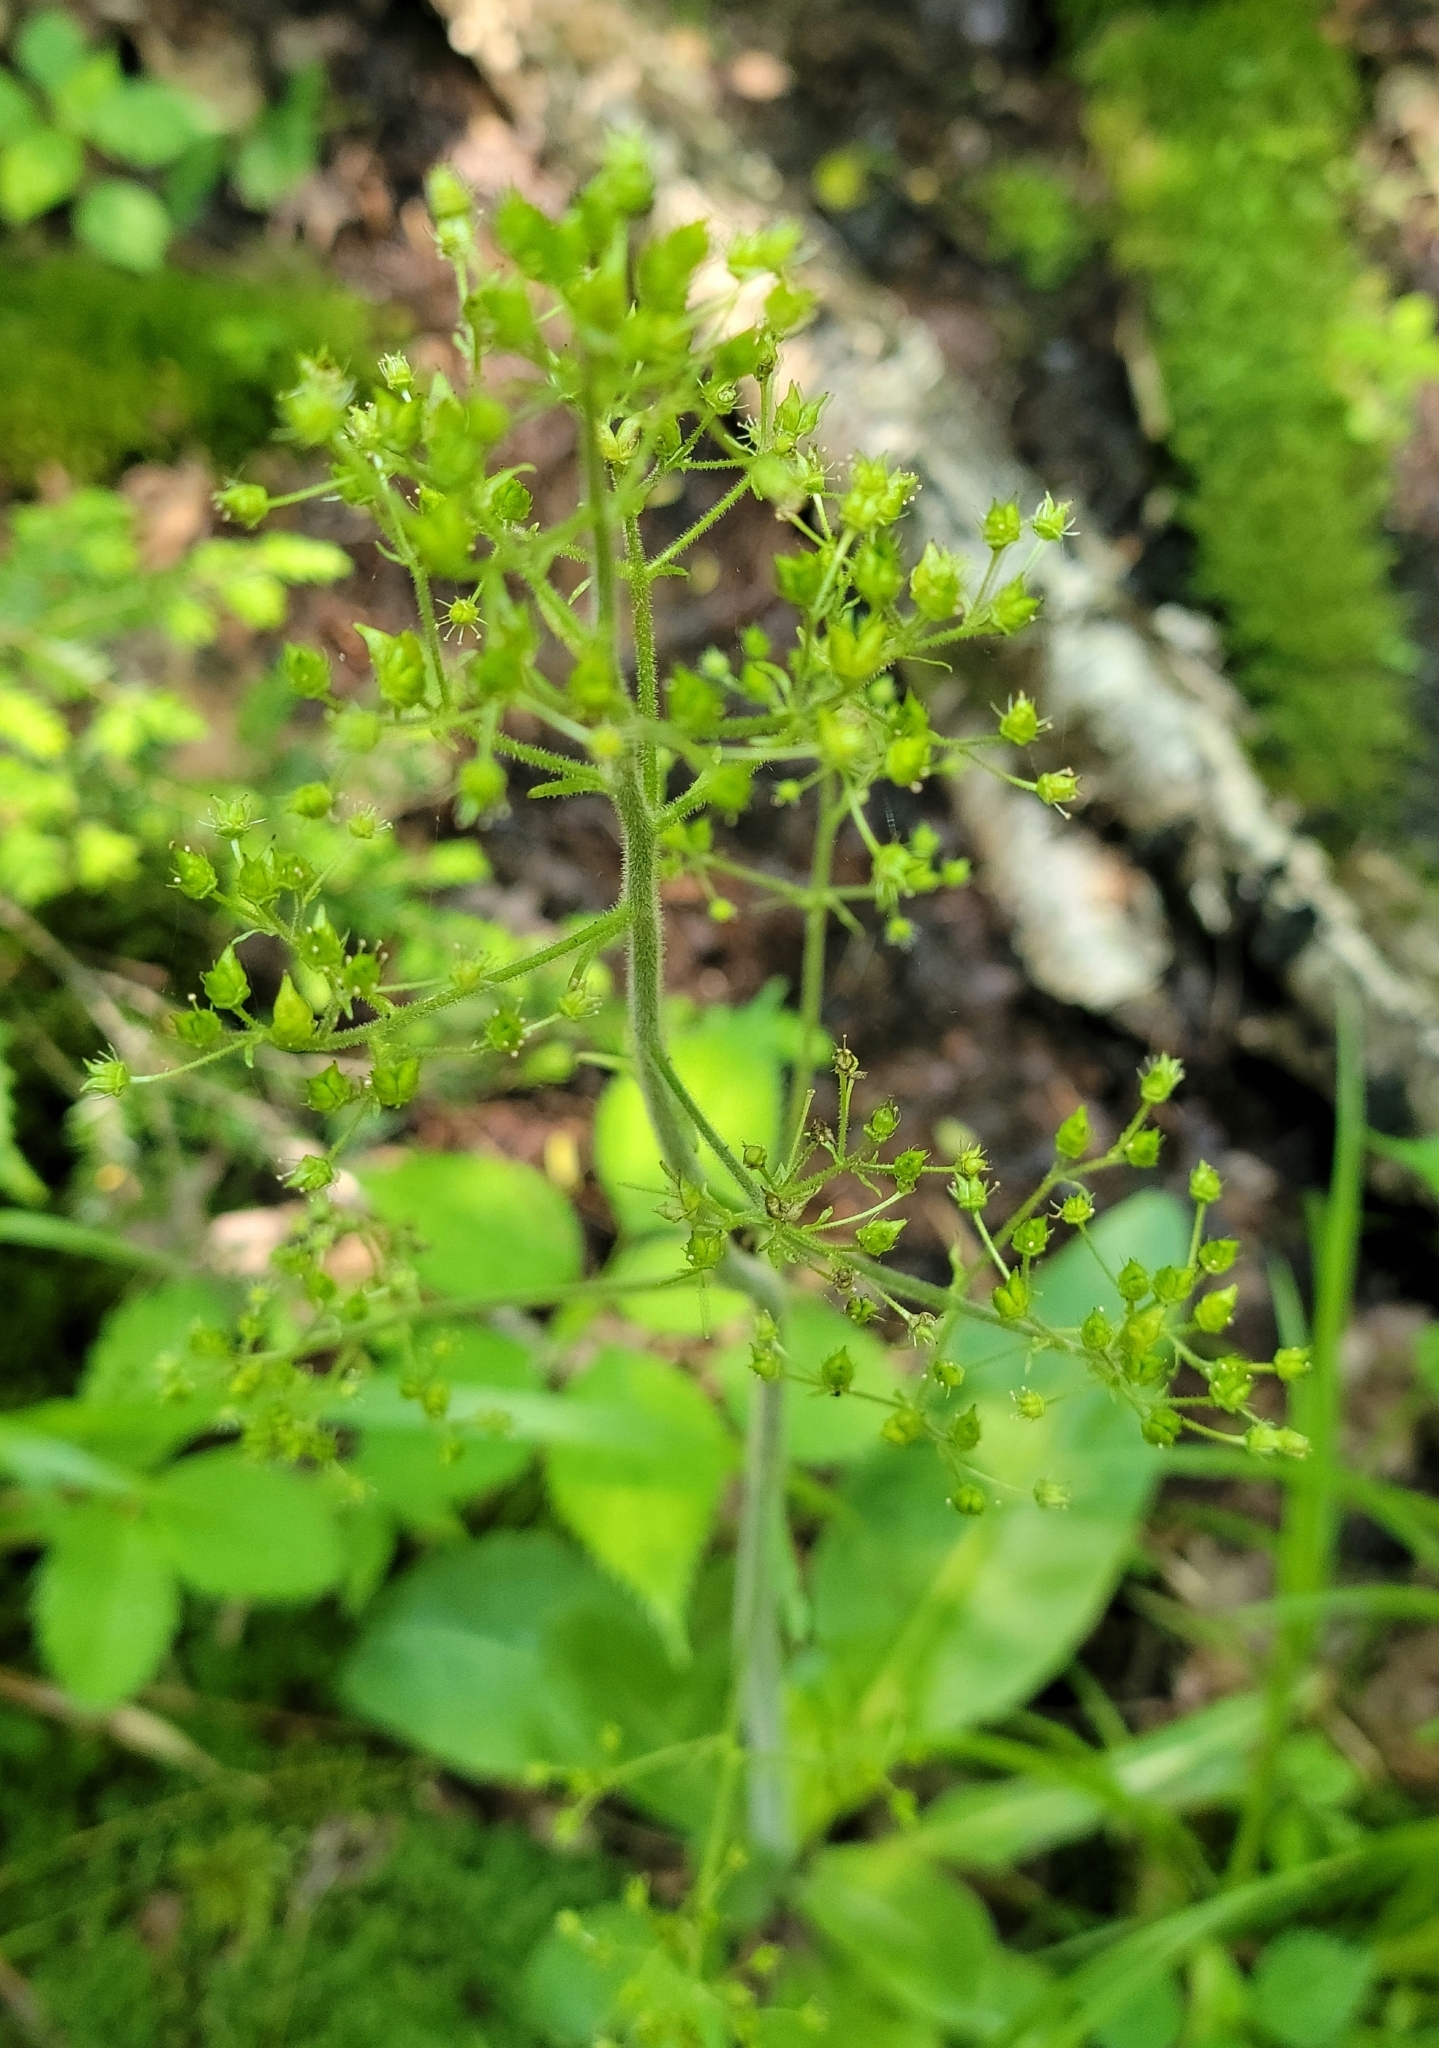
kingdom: Plantae
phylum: Tracheophyta
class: Magnoliopsida
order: Saxifragales
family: Saxifragaceae
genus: Micranthes
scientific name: Micranthes pensylvanica
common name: Marsh saxifrage
